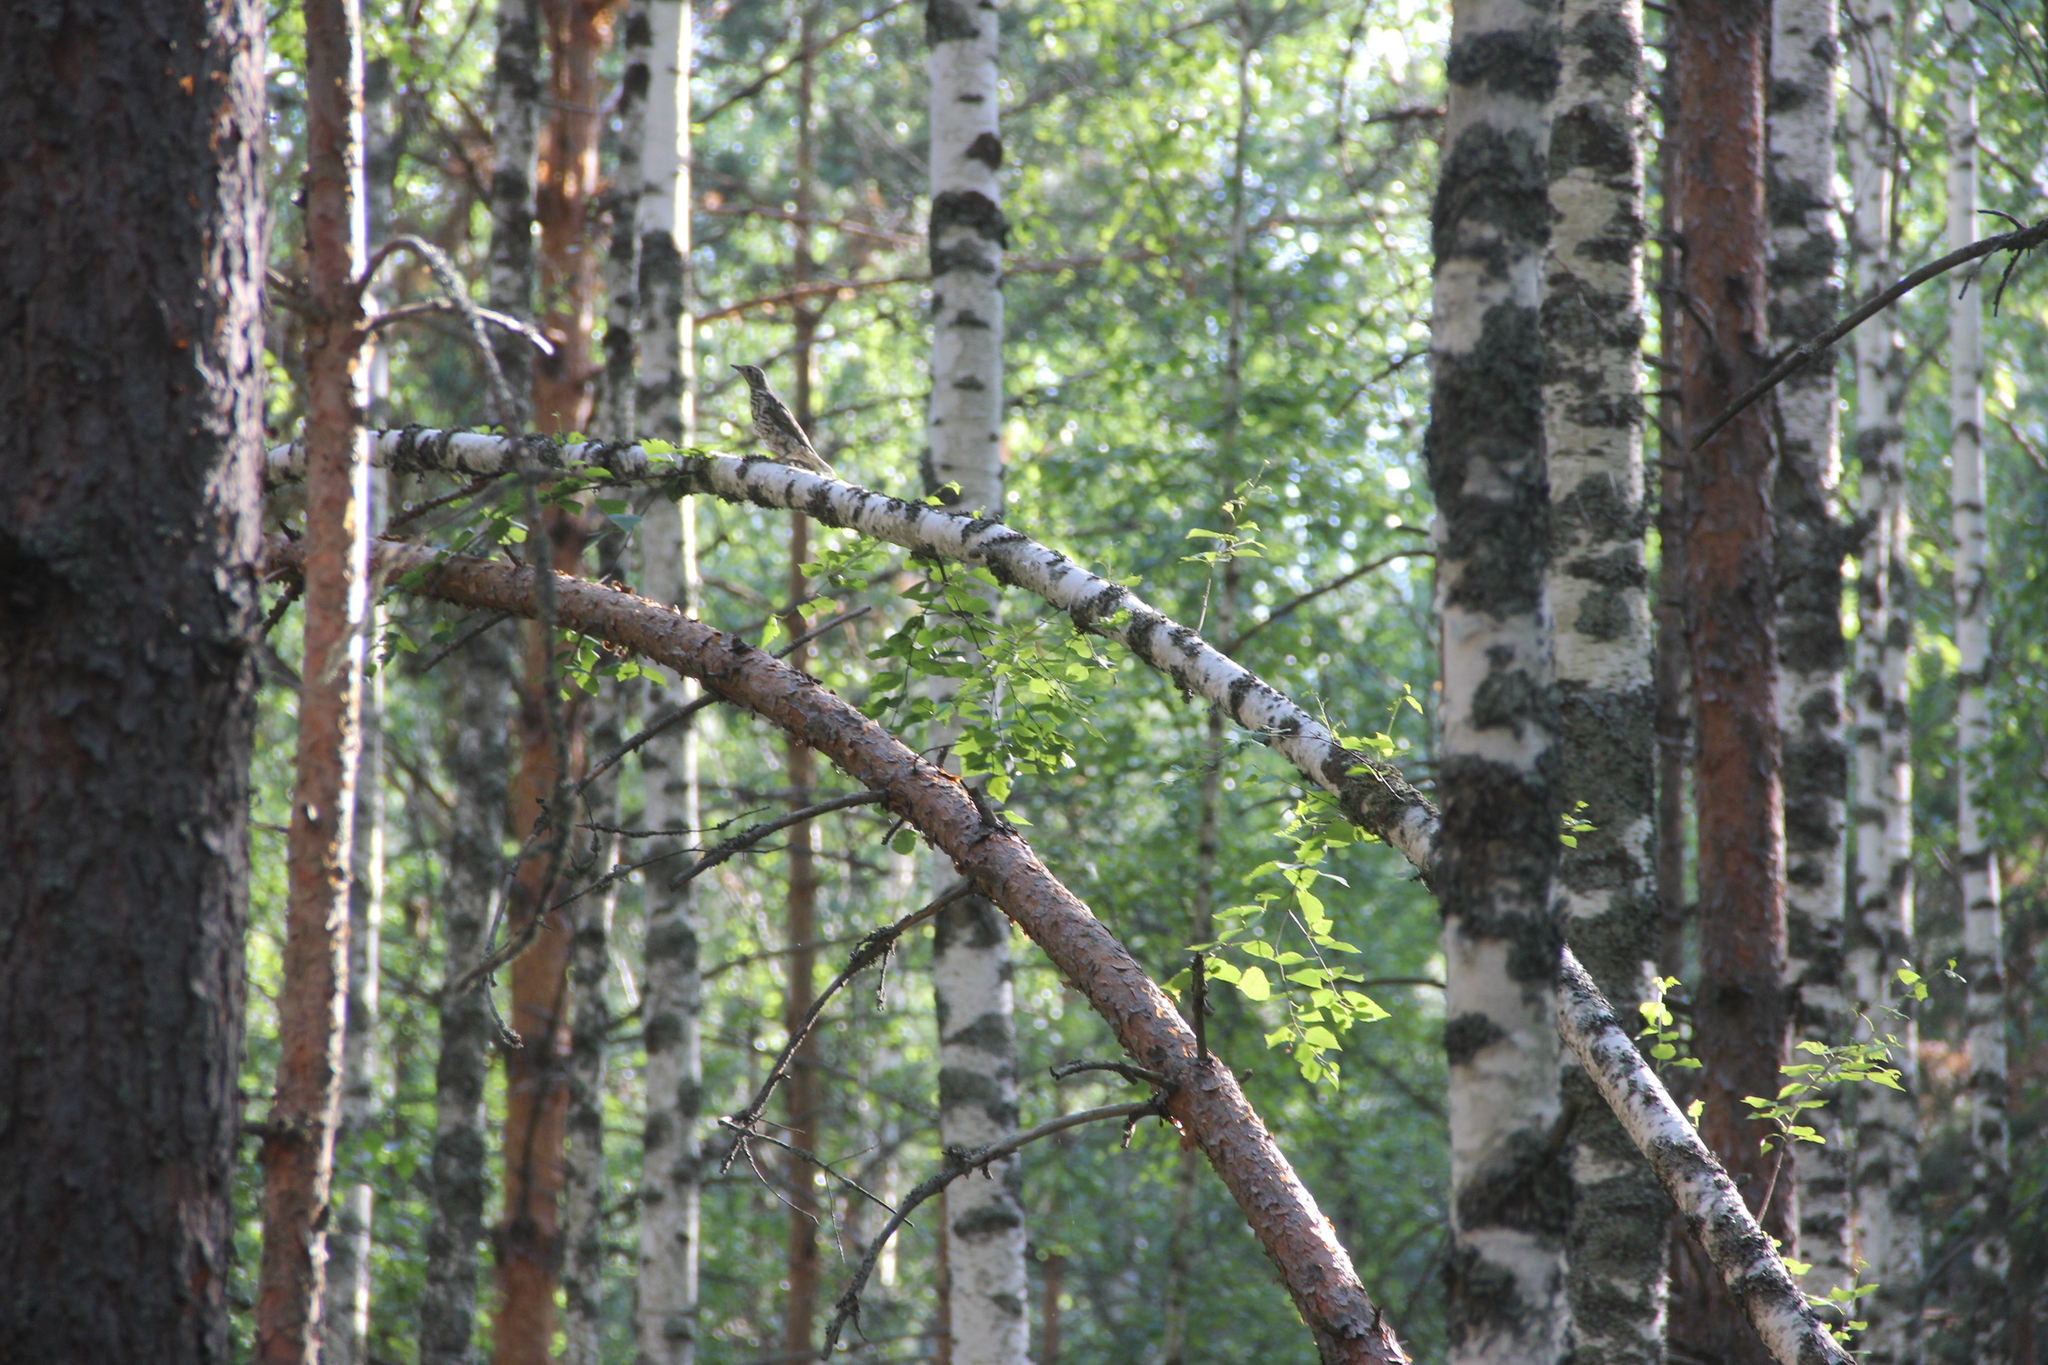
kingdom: Animalia
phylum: Chordata
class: Aves
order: Passeriformes
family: Turdidae
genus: Turdus
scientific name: Turdus viscivorus
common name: Mistle thrush
